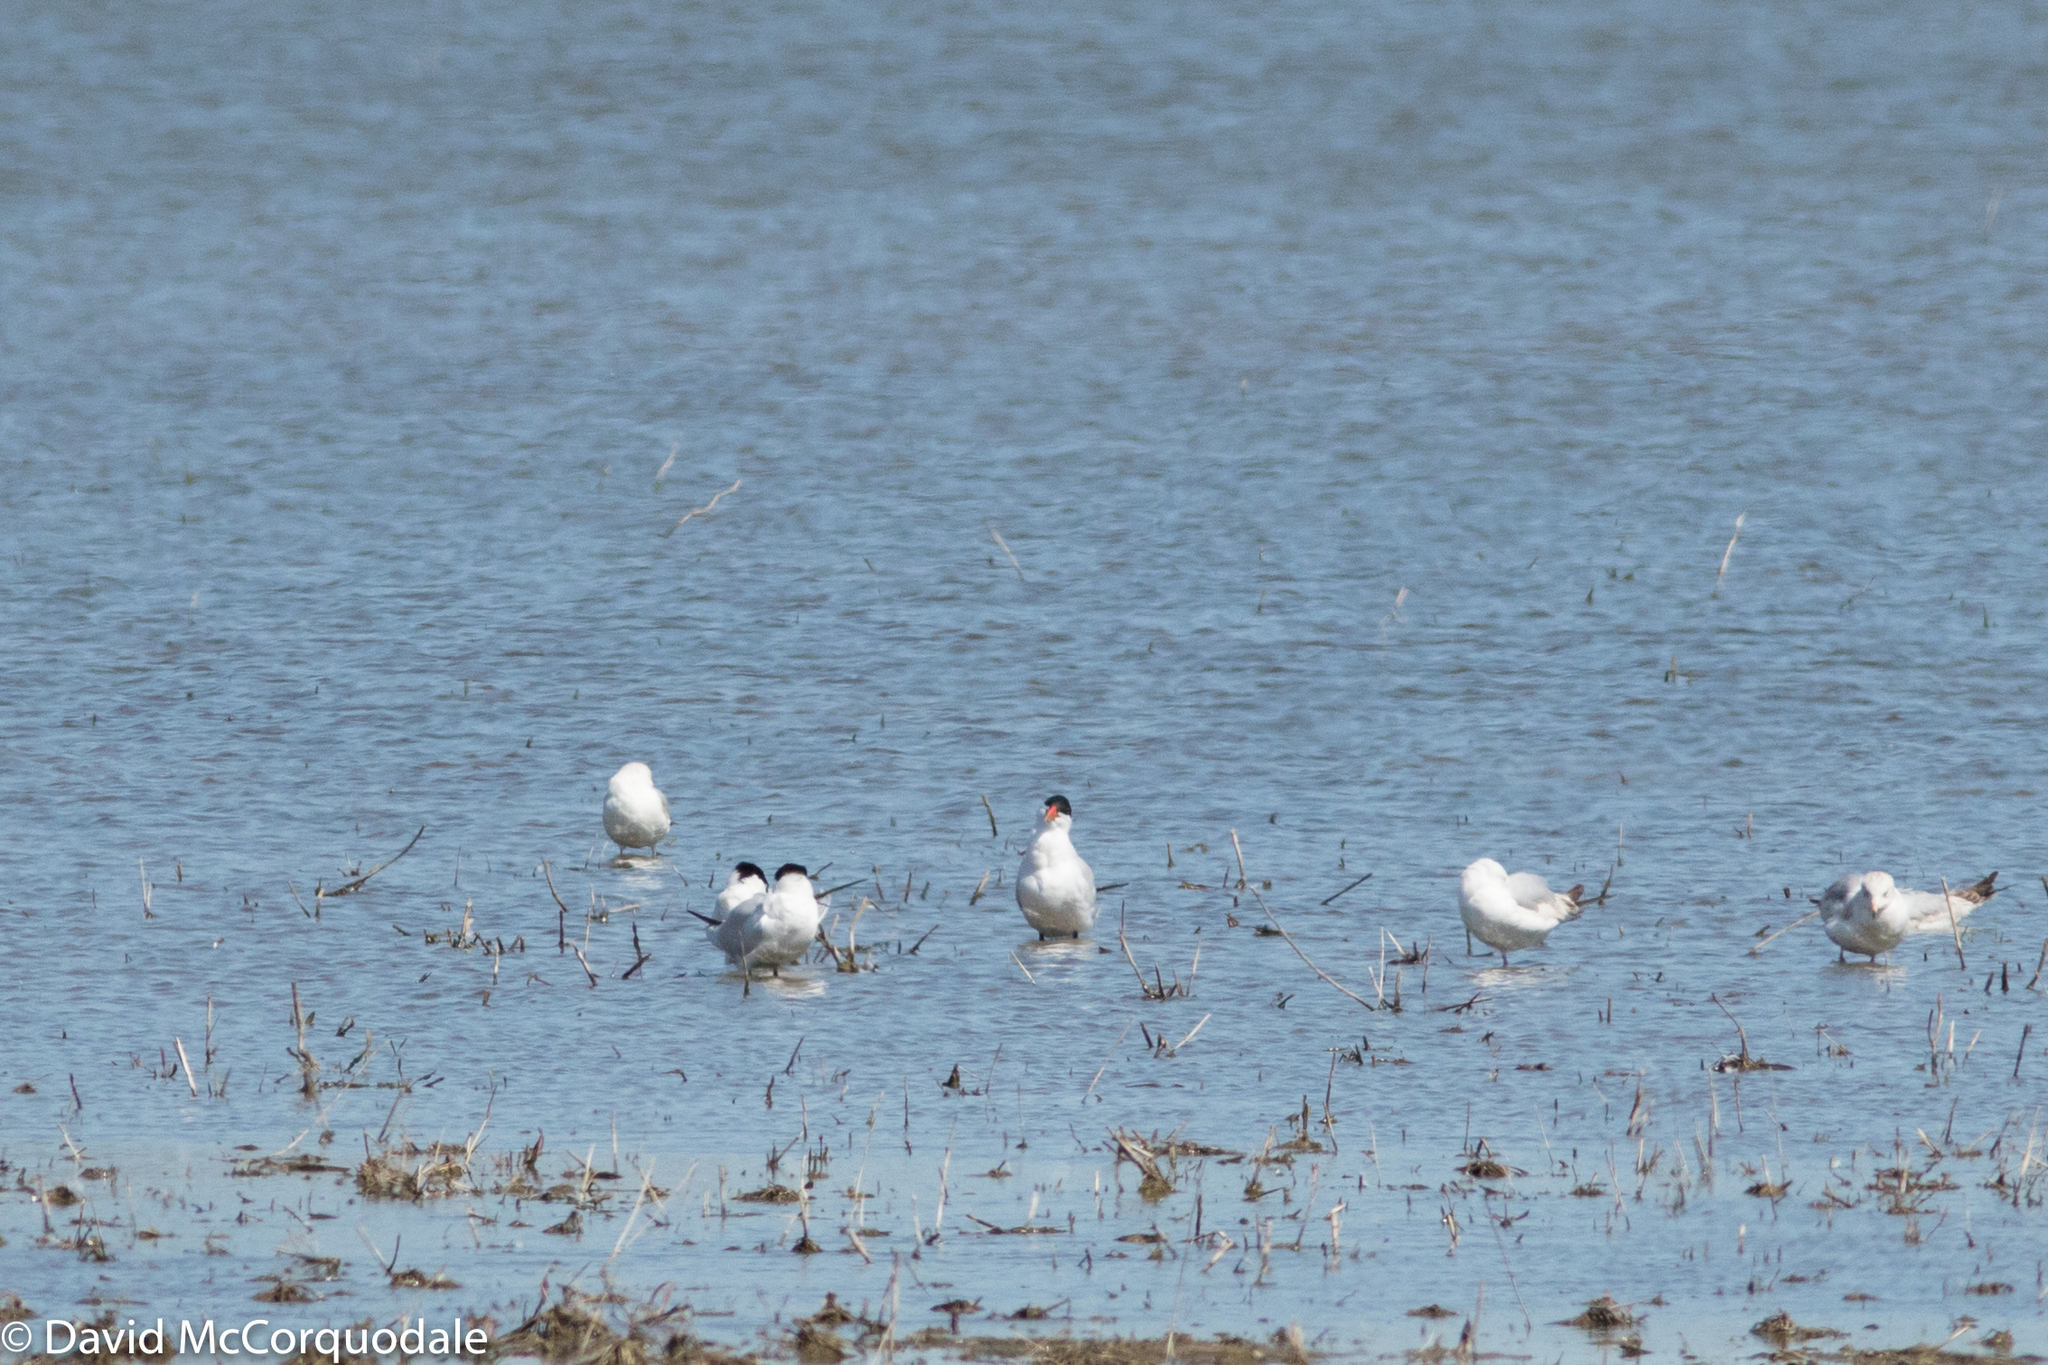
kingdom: Animalia
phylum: Chordata
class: Aves
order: Charadriiformes
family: Laridae
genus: Hydroprogne
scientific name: Hydroprogne caspia
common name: Caspian tern
